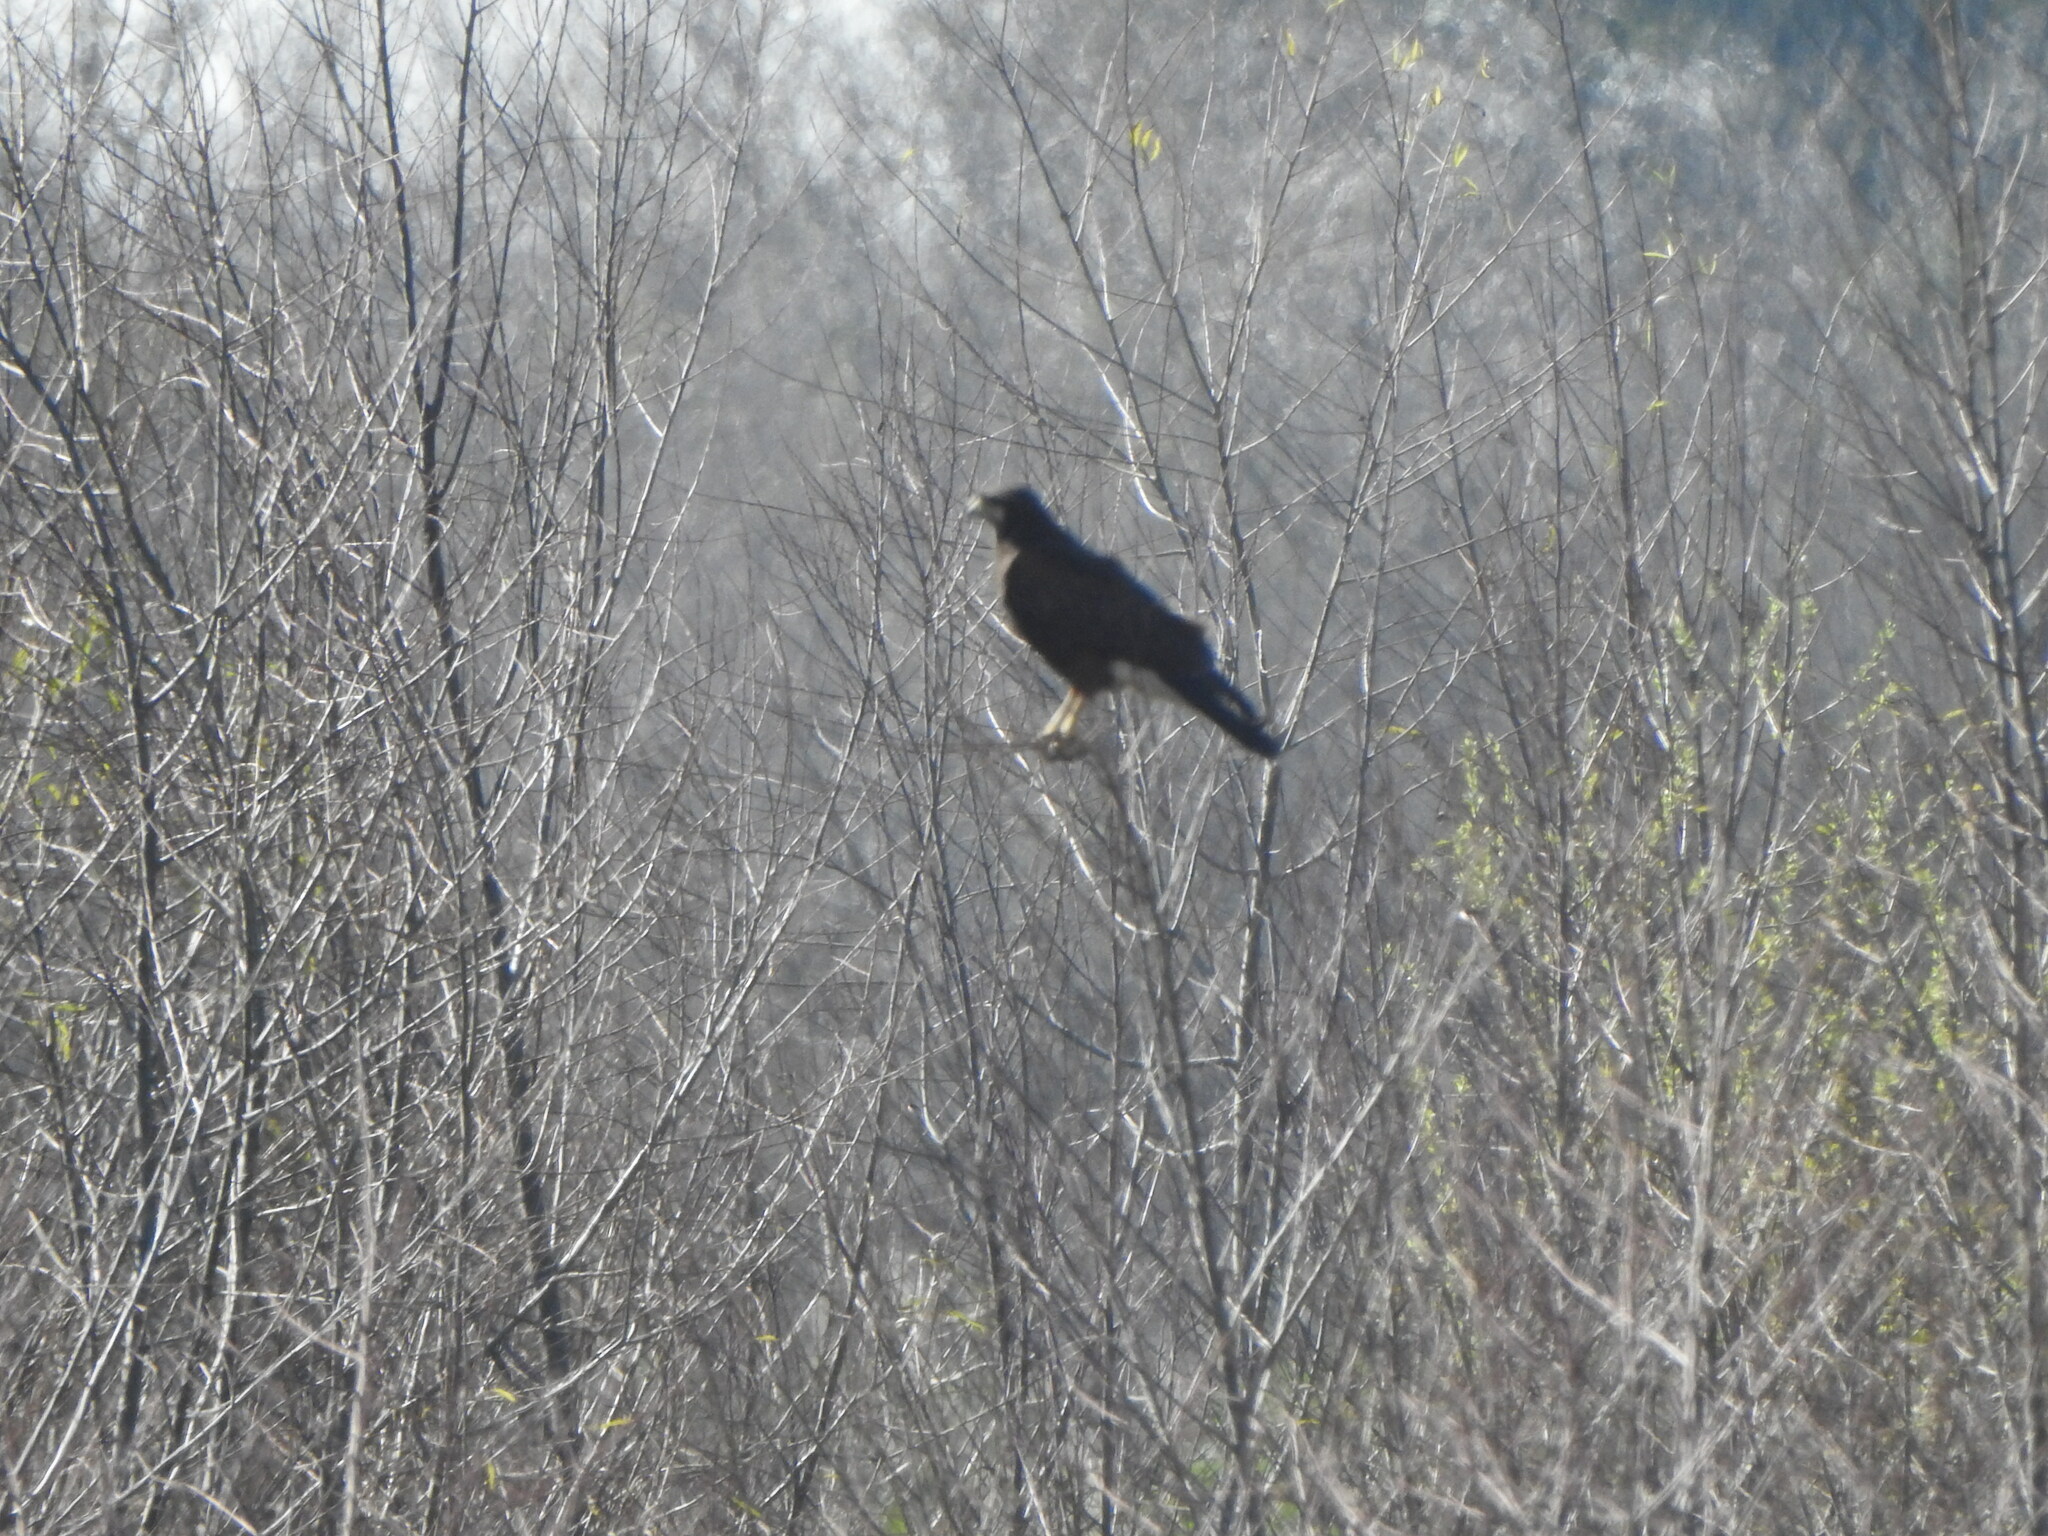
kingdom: Animalia
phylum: Chordata
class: Aves
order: Accipitriformes
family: Accipitridae
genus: Parabuteo
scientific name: Parabuteo unicinctus
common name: Harris's hawk
